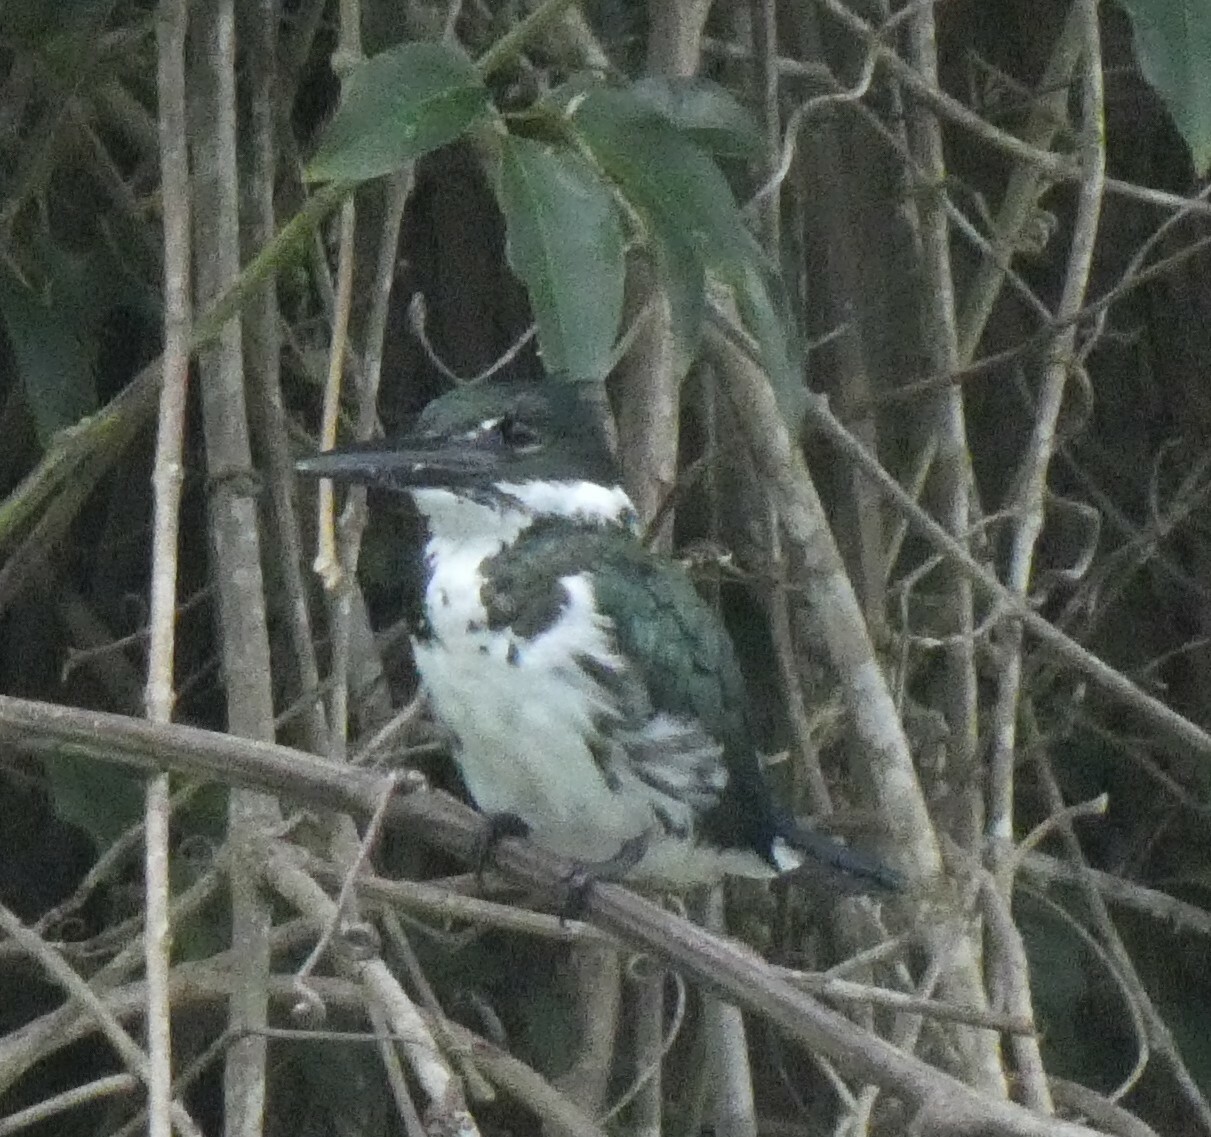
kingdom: Animalia
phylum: Chordata
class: Aves
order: Coraciiformes
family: Alcedinidae
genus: Chloroceryle
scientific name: Chloroceryle amazona
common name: Amazon kingfisher
